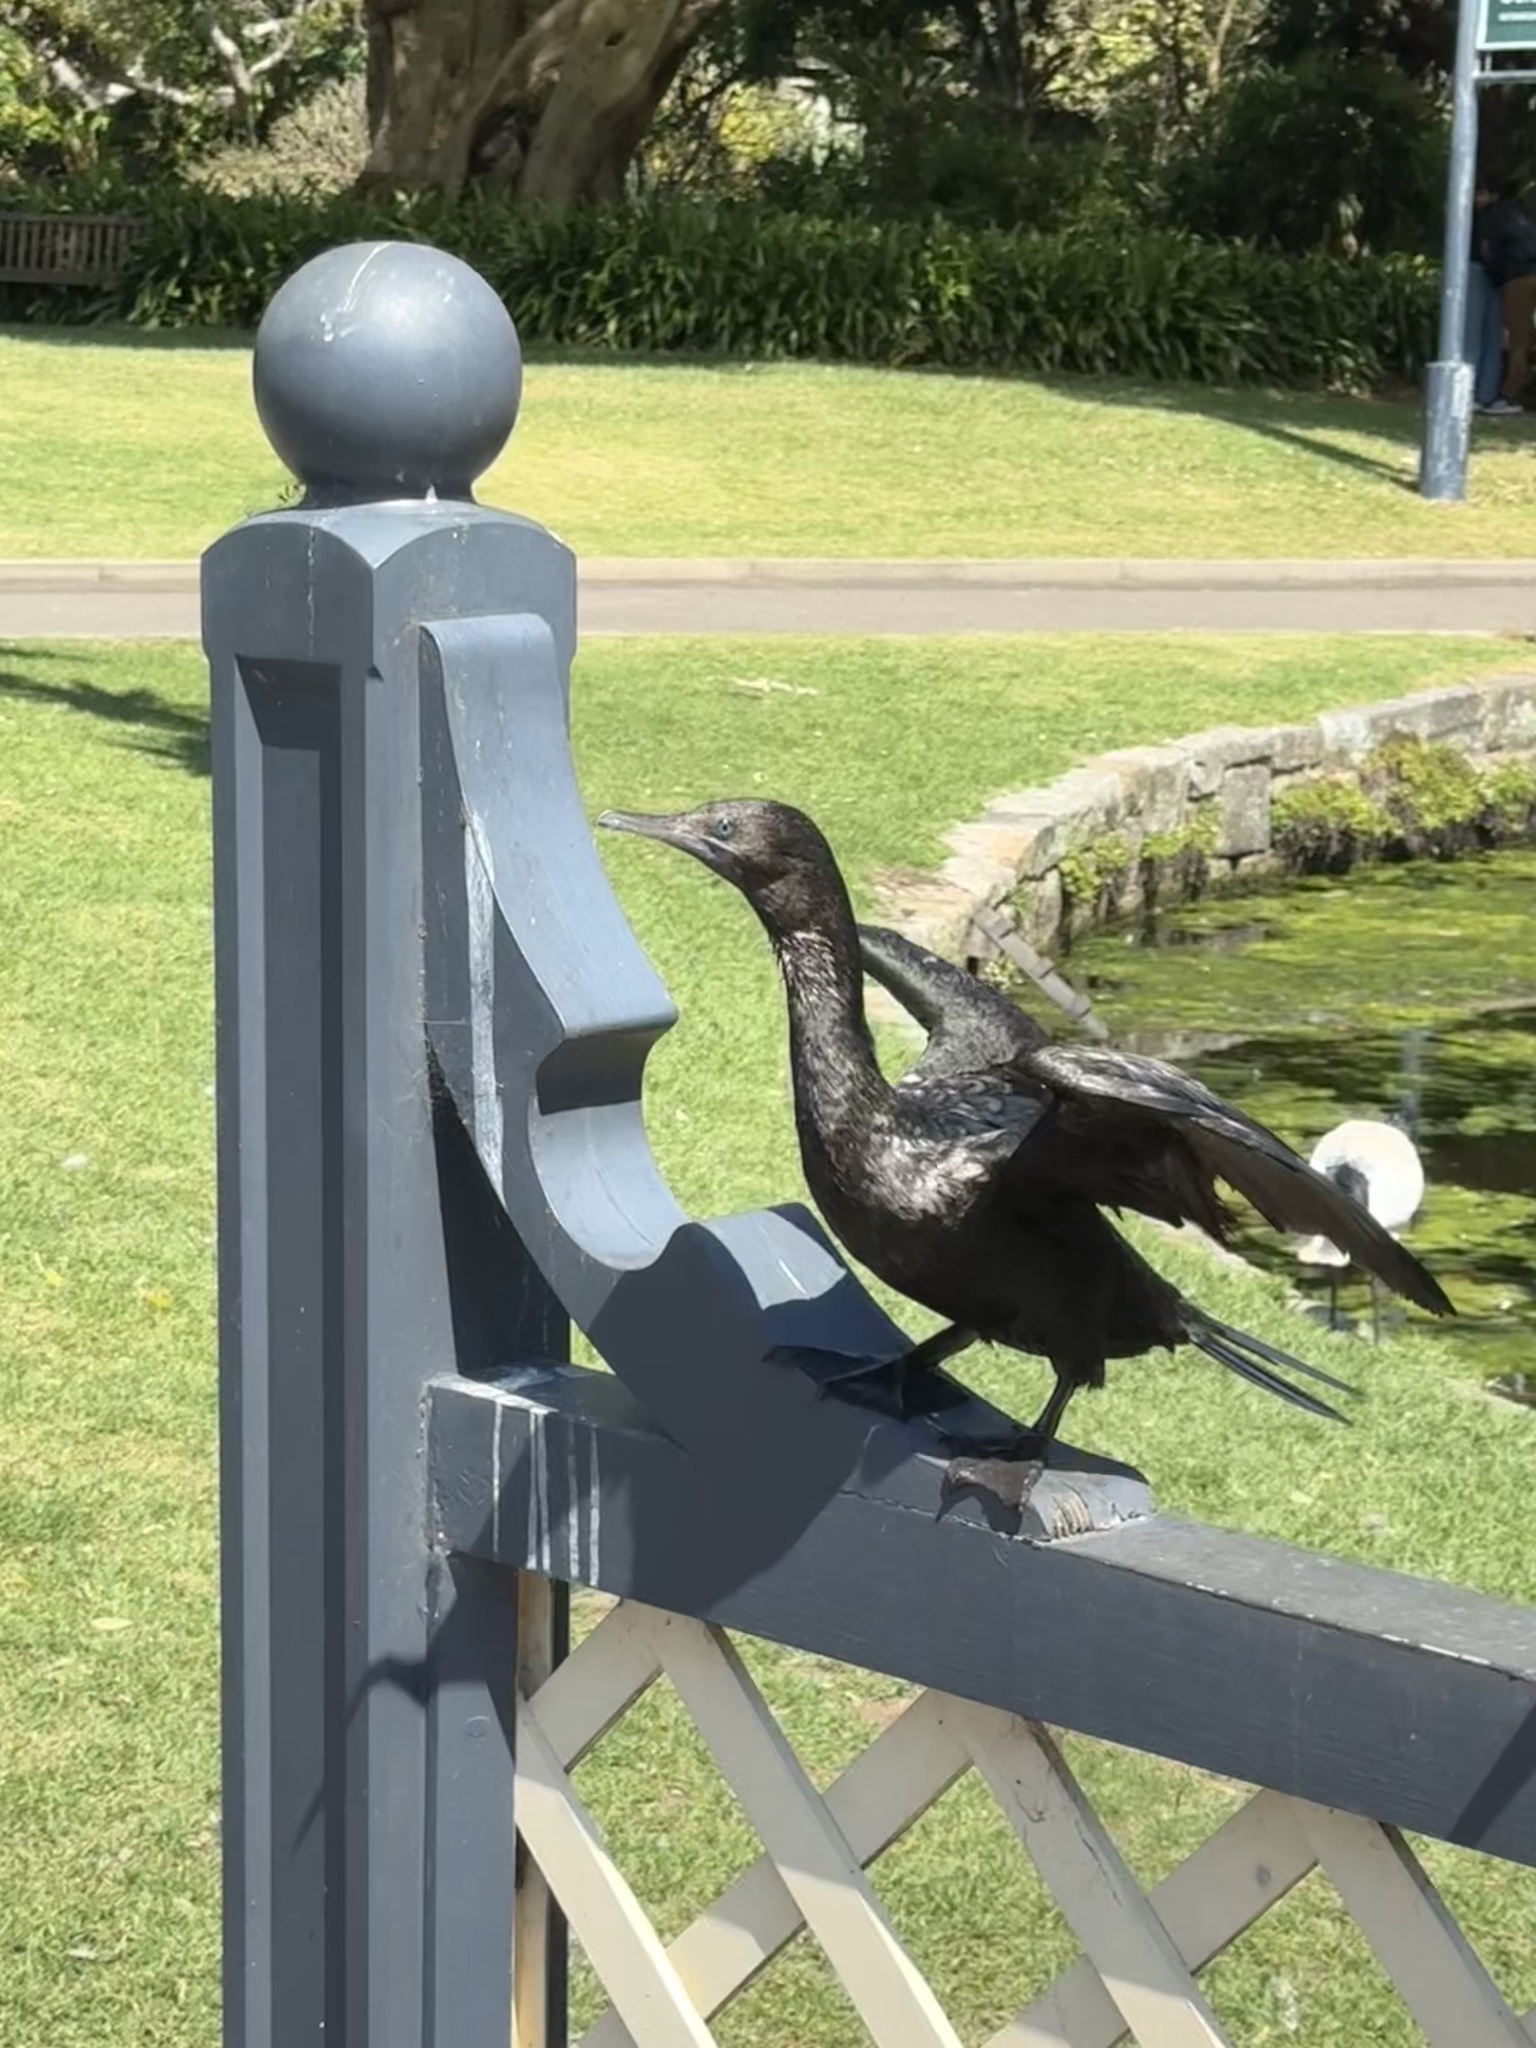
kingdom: Animalia
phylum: Chordata
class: Aves
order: Suliformes
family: Phalacrocoracidae
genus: Phalacrocorax
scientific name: Phalacrocorax sulcirostris
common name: Little black cormorant
